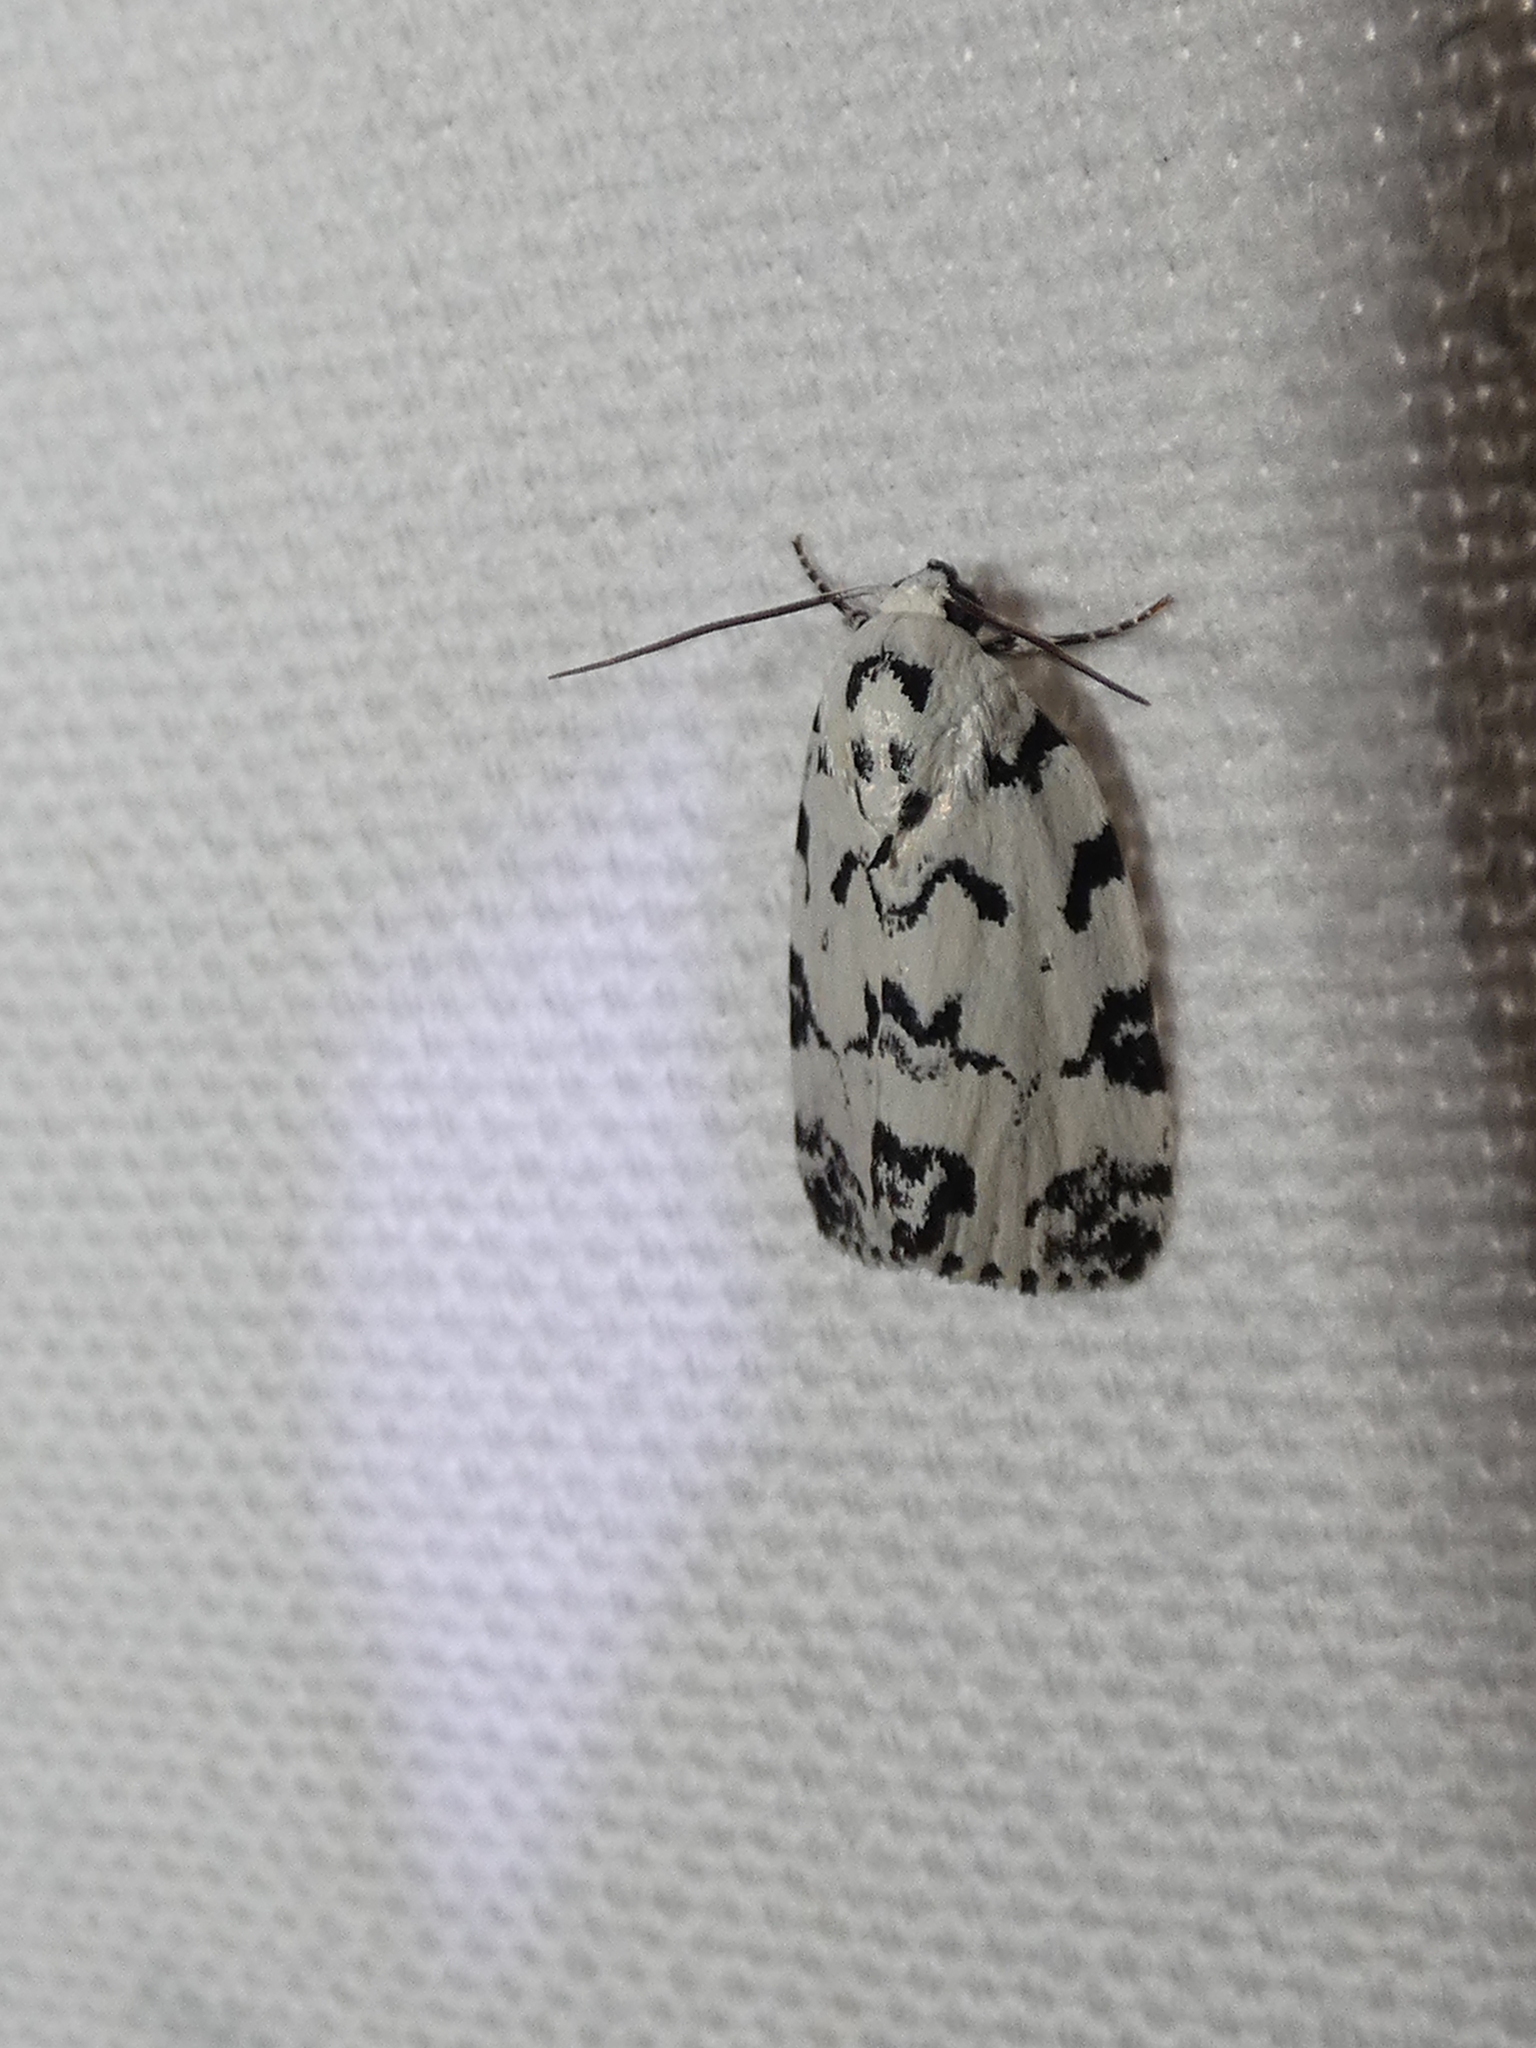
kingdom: Animalia
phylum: Arthropoda
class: Insecta
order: Lepidoptera
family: Noctuidae
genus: Polygrammate
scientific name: Polygrammate hebraeicum
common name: Hebrew moth
